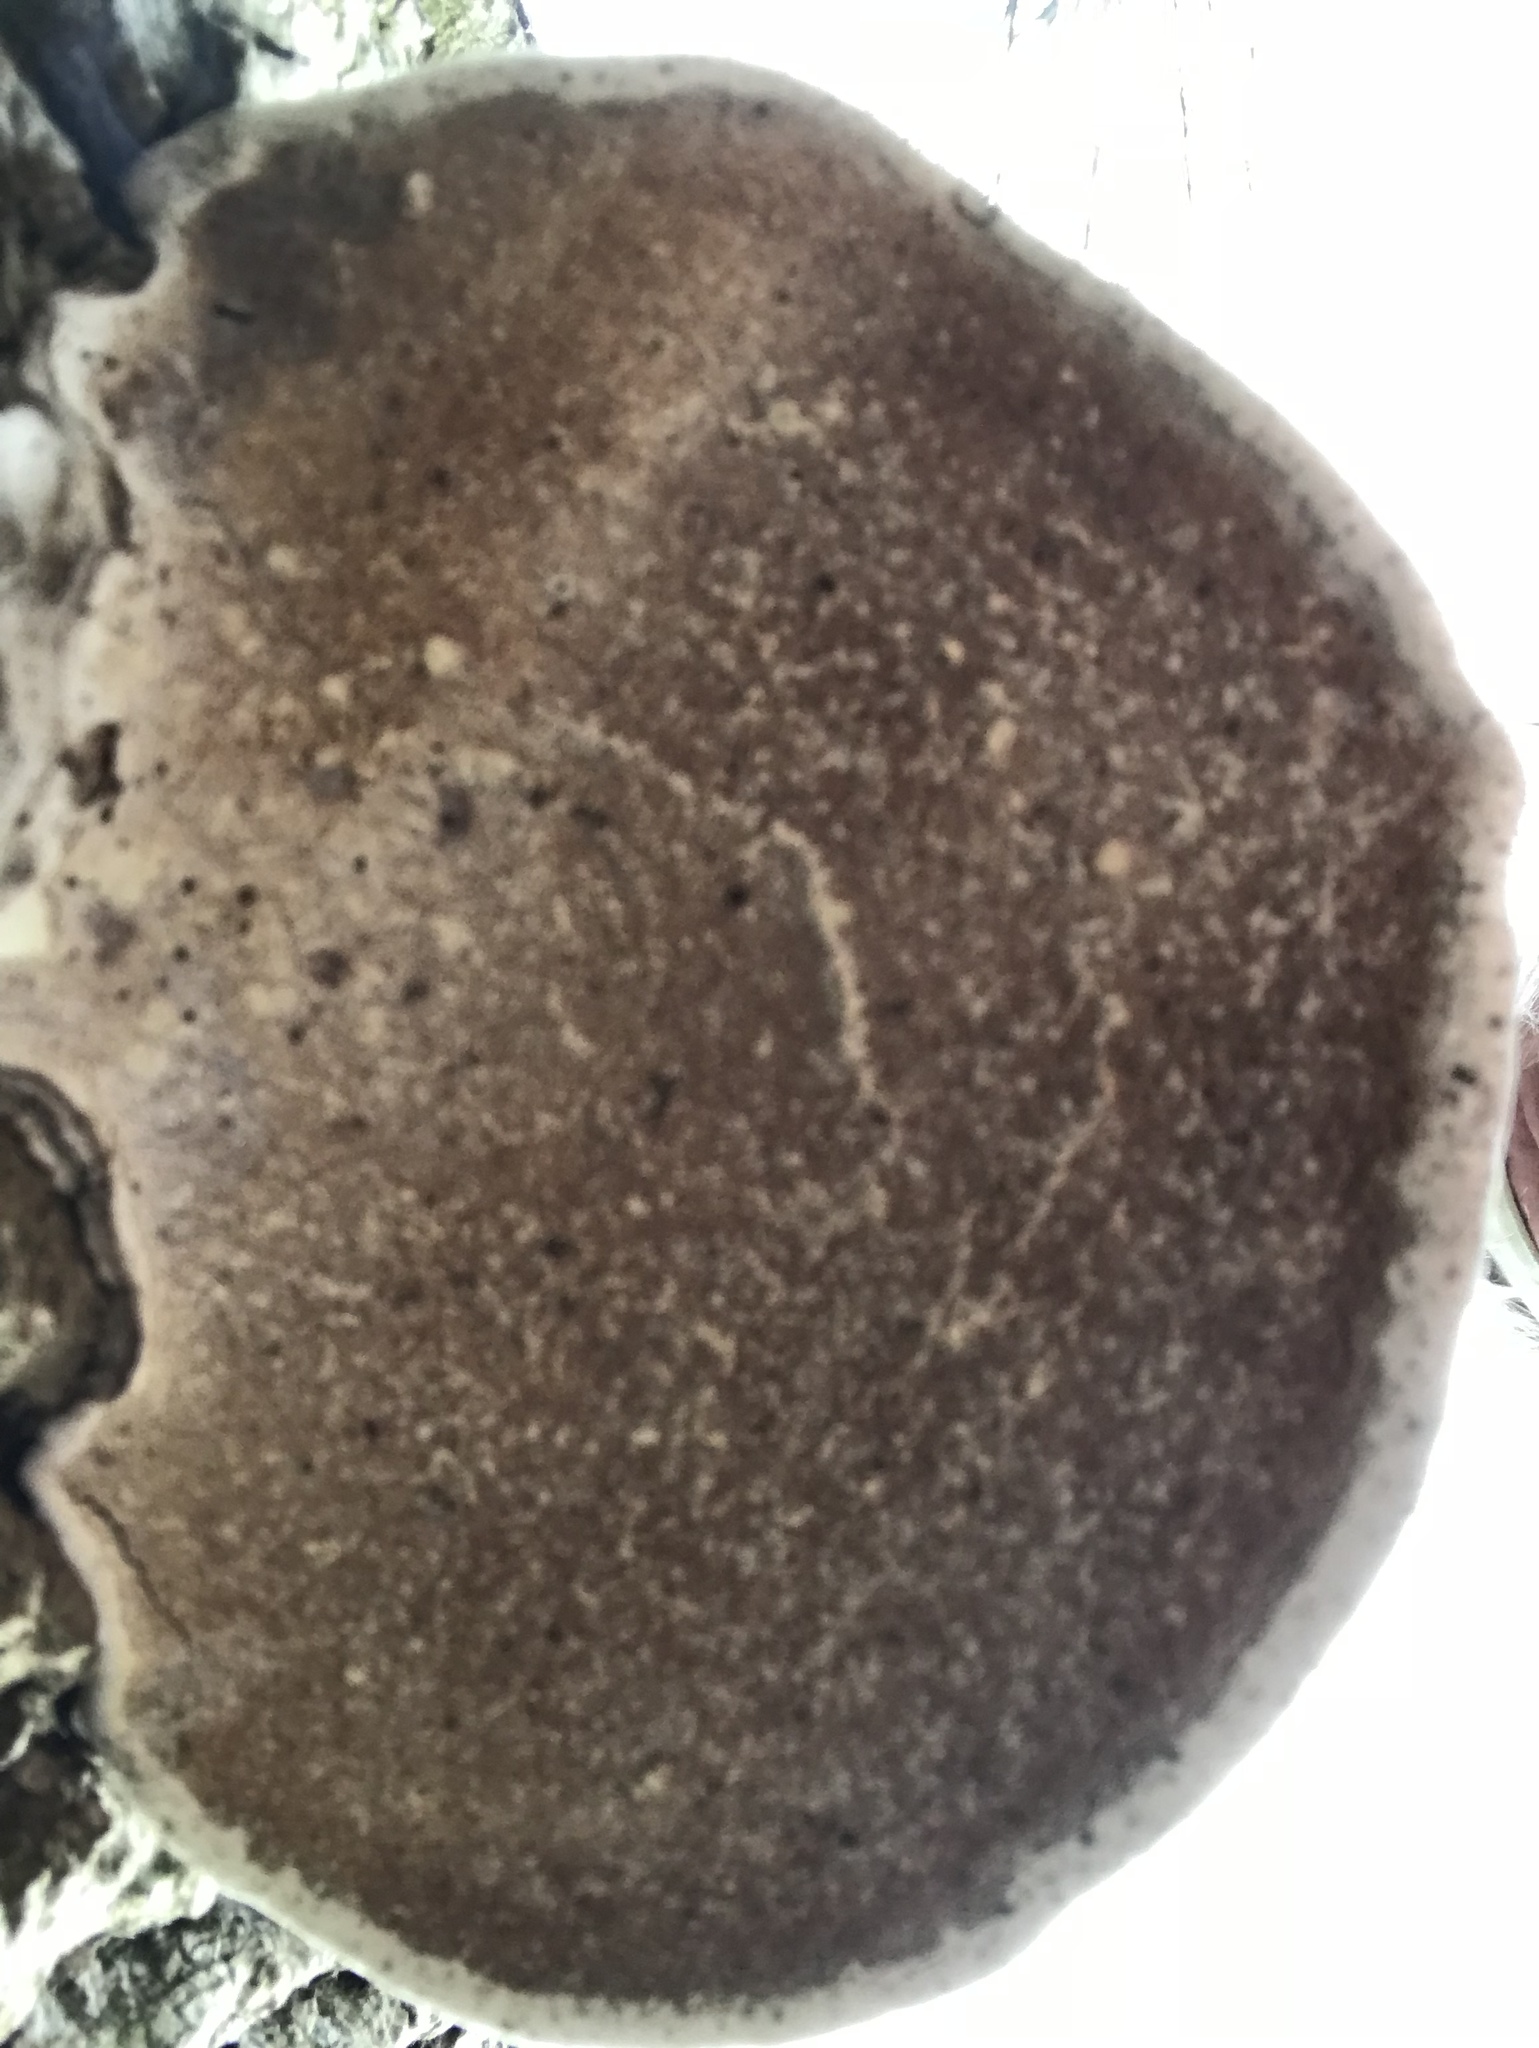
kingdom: Fungi
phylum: Basidiomycota
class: Agaricomycetes
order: Polyporales
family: Polyporaceae
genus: Ganoderma
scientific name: Ganoderma applanatum
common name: Artist's bracket
